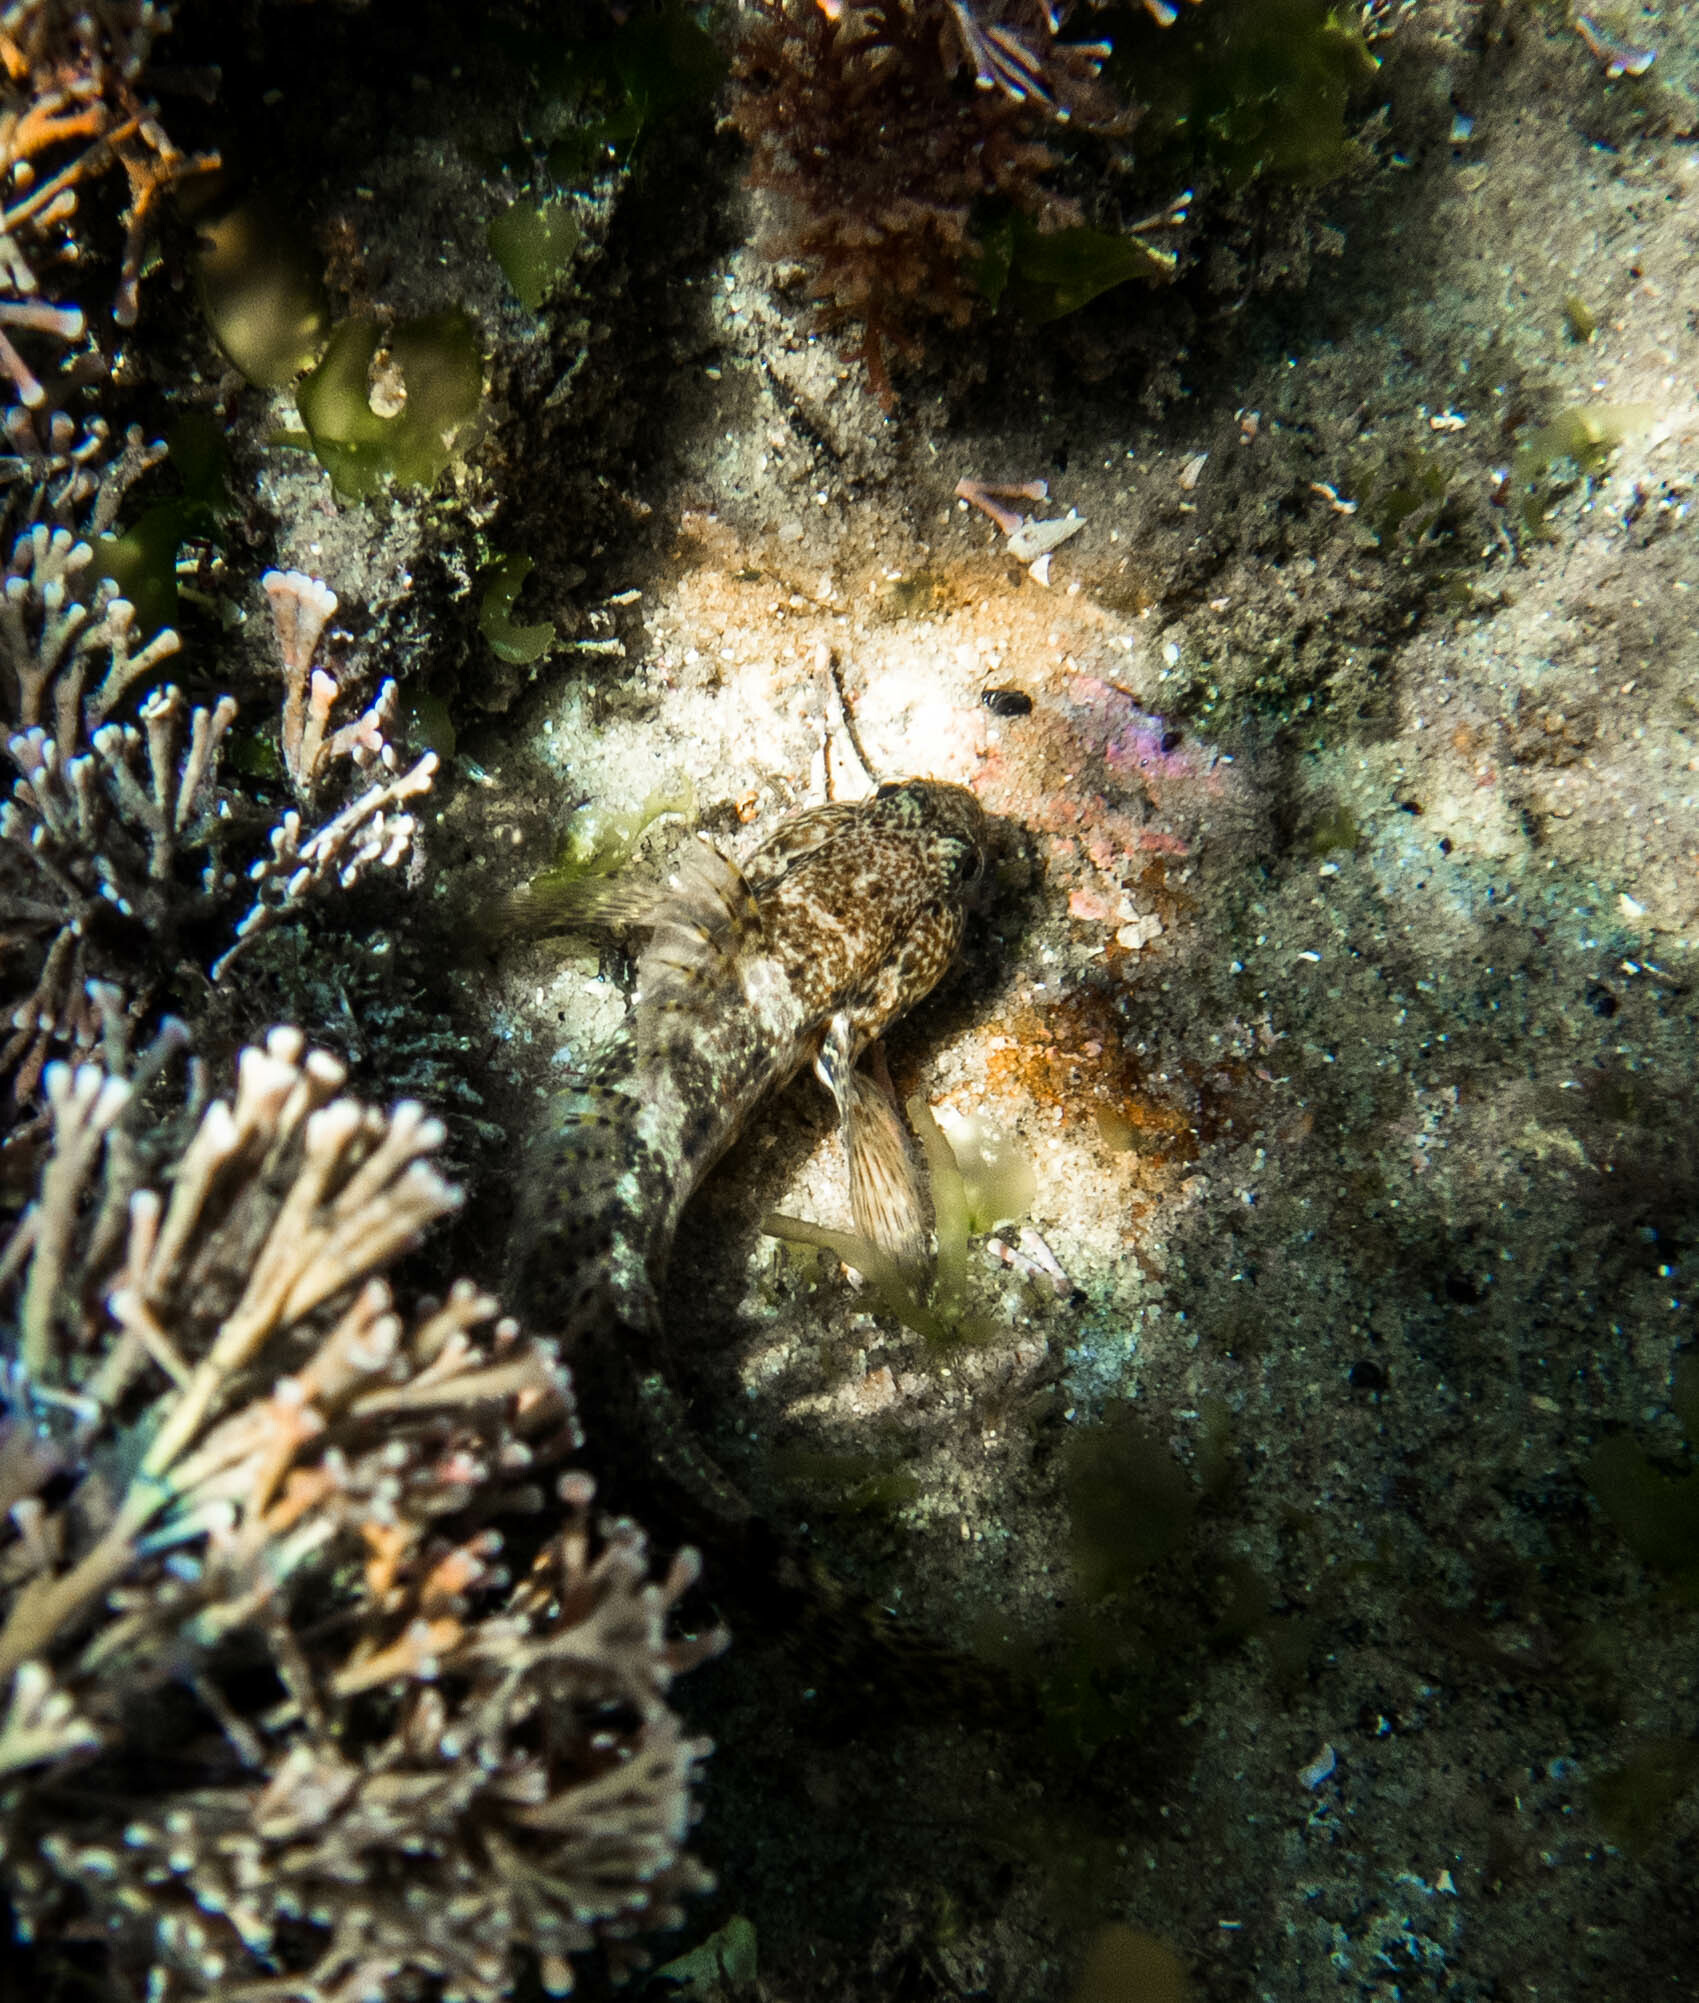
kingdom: Animalia
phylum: Chordata
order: Perciformes
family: Gobiidae
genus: Bathygobius
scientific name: Bathygobius krefftii
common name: Frayedfin goby
